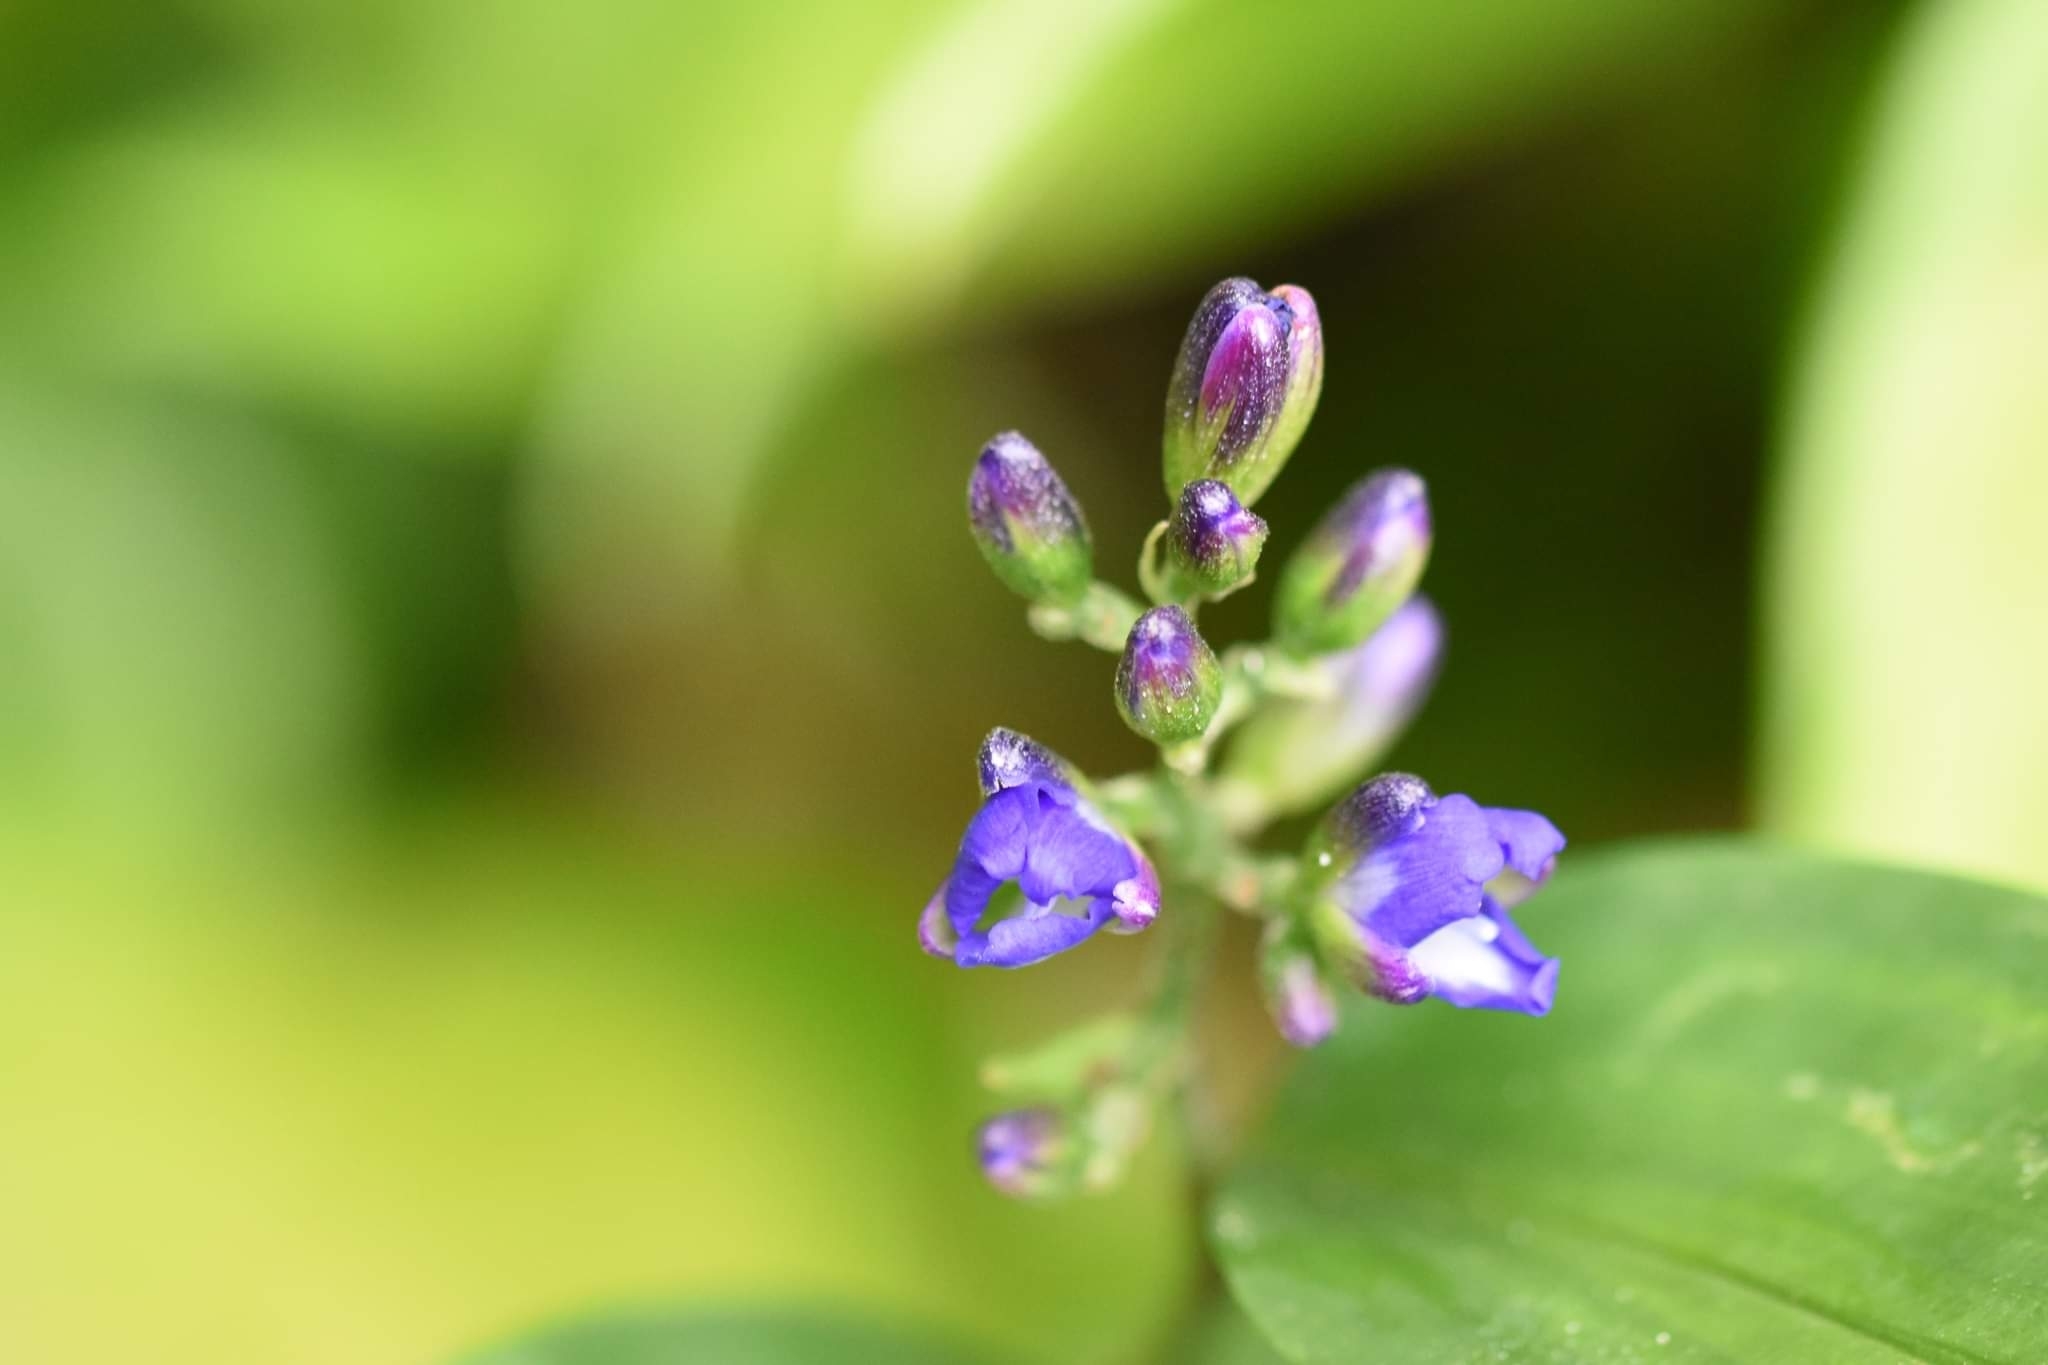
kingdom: Plantae
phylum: Tracheophyta
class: Liliopsida
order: Commelinales
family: Commelinaceae
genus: Dichorisandra
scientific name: Dichorisandra hexandra
